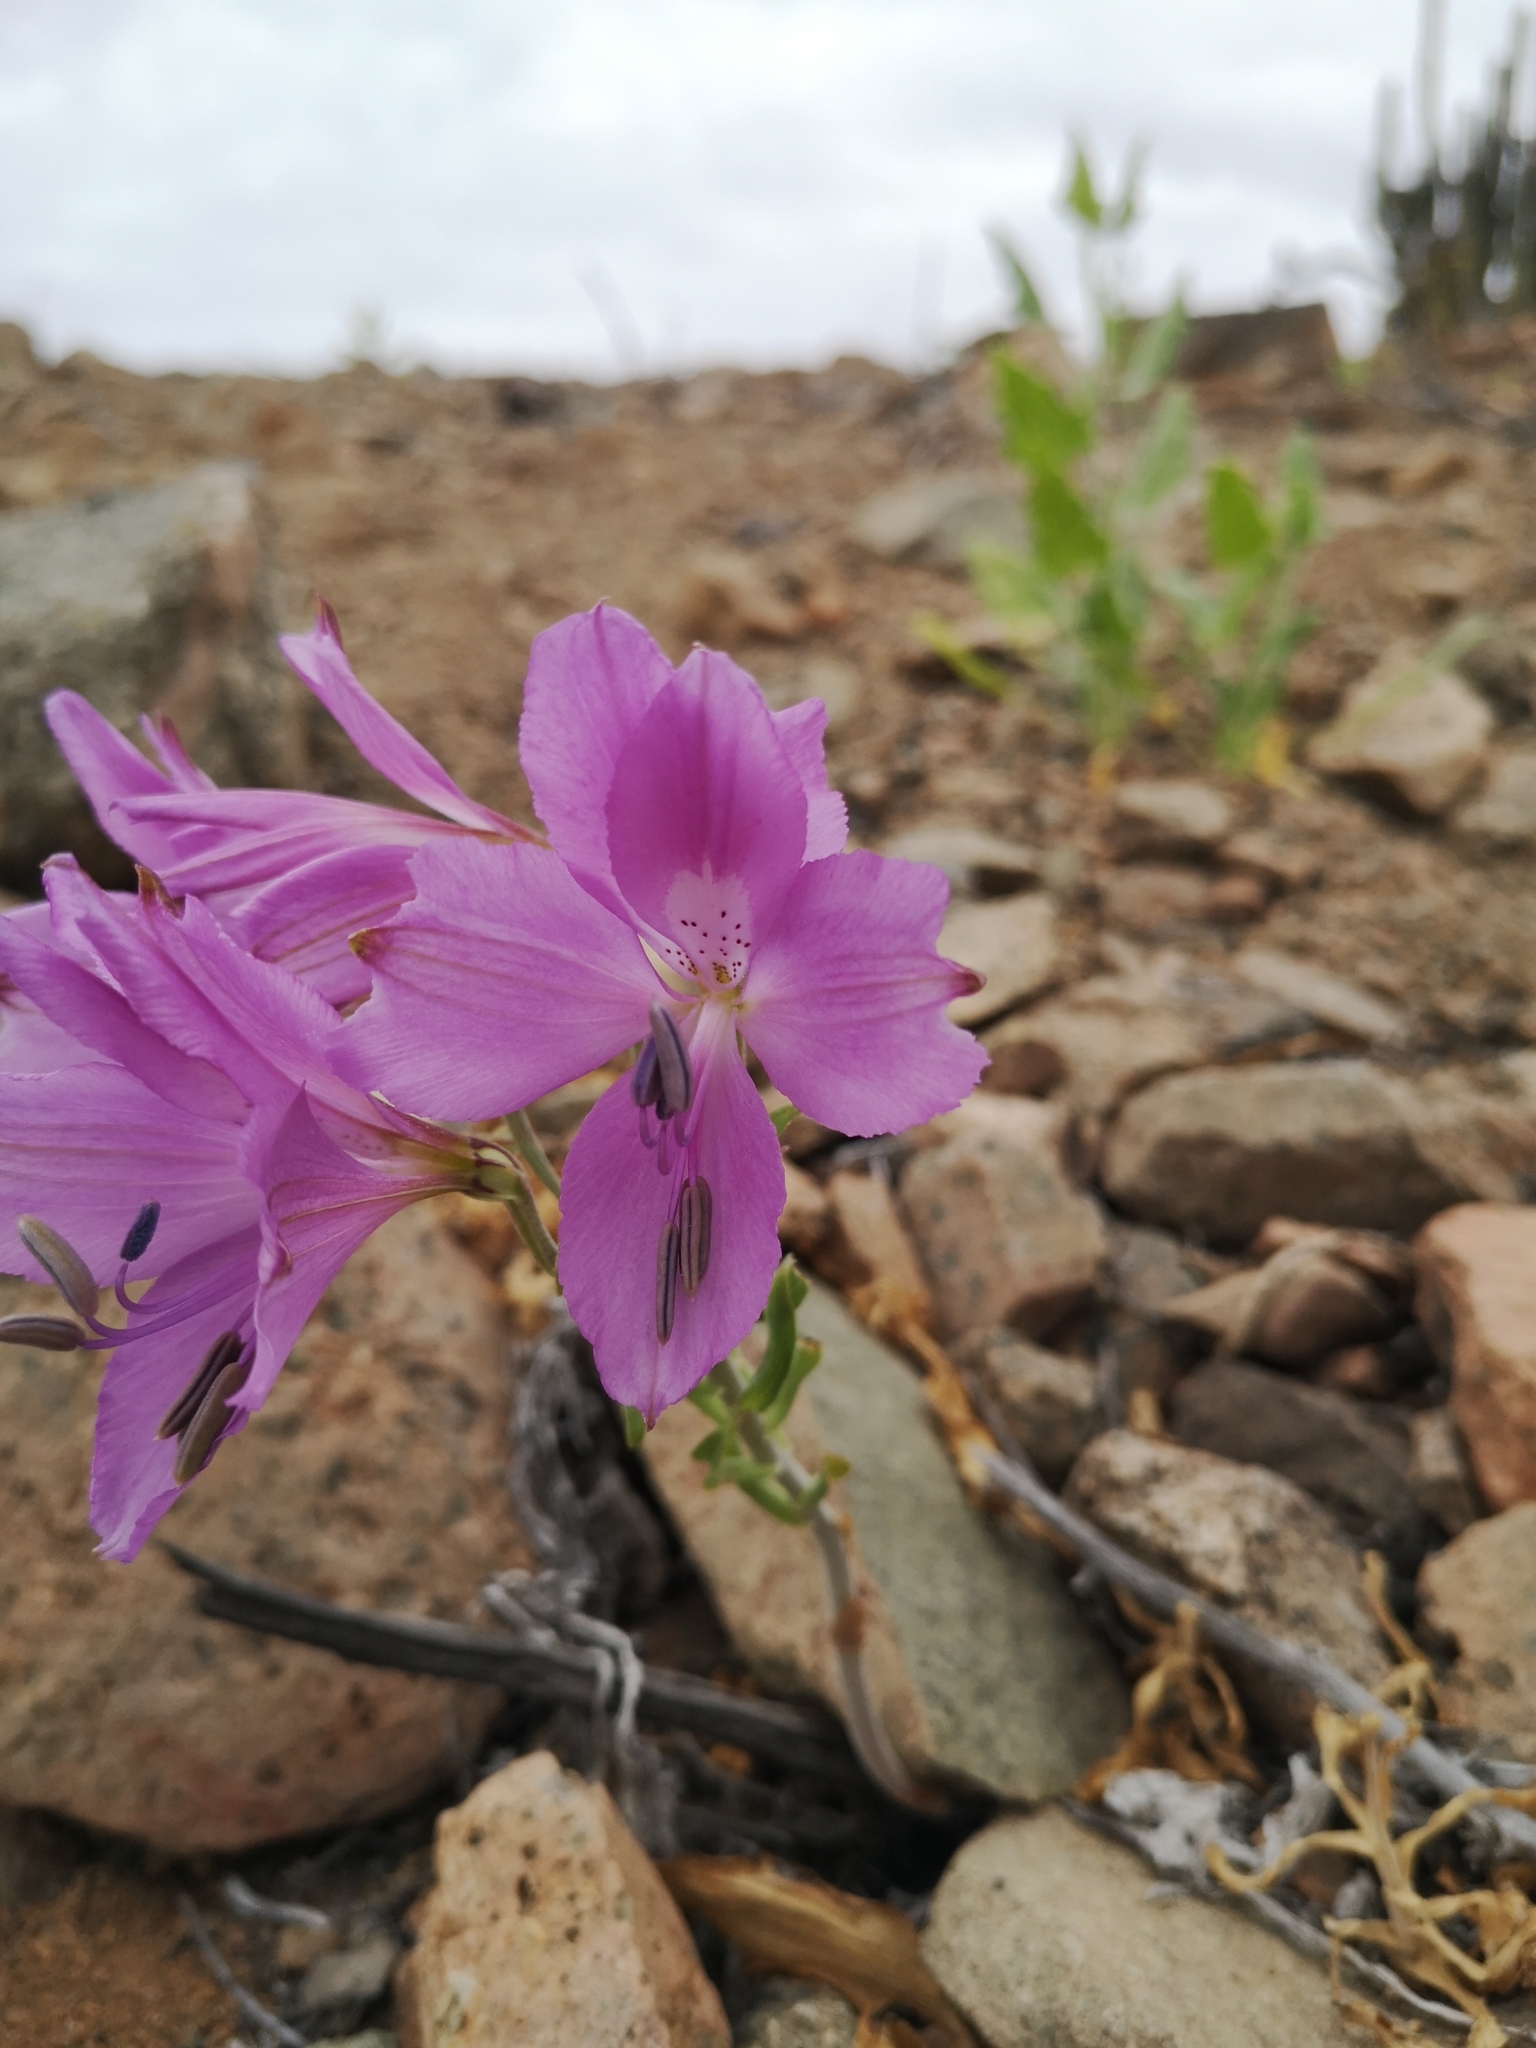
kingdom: Plantae
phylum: Tracheophyta
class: Liliopsida
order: Liliales
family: Alstroemeriaceae
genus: Alstroemeria
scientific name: Alstroemeria violacea
